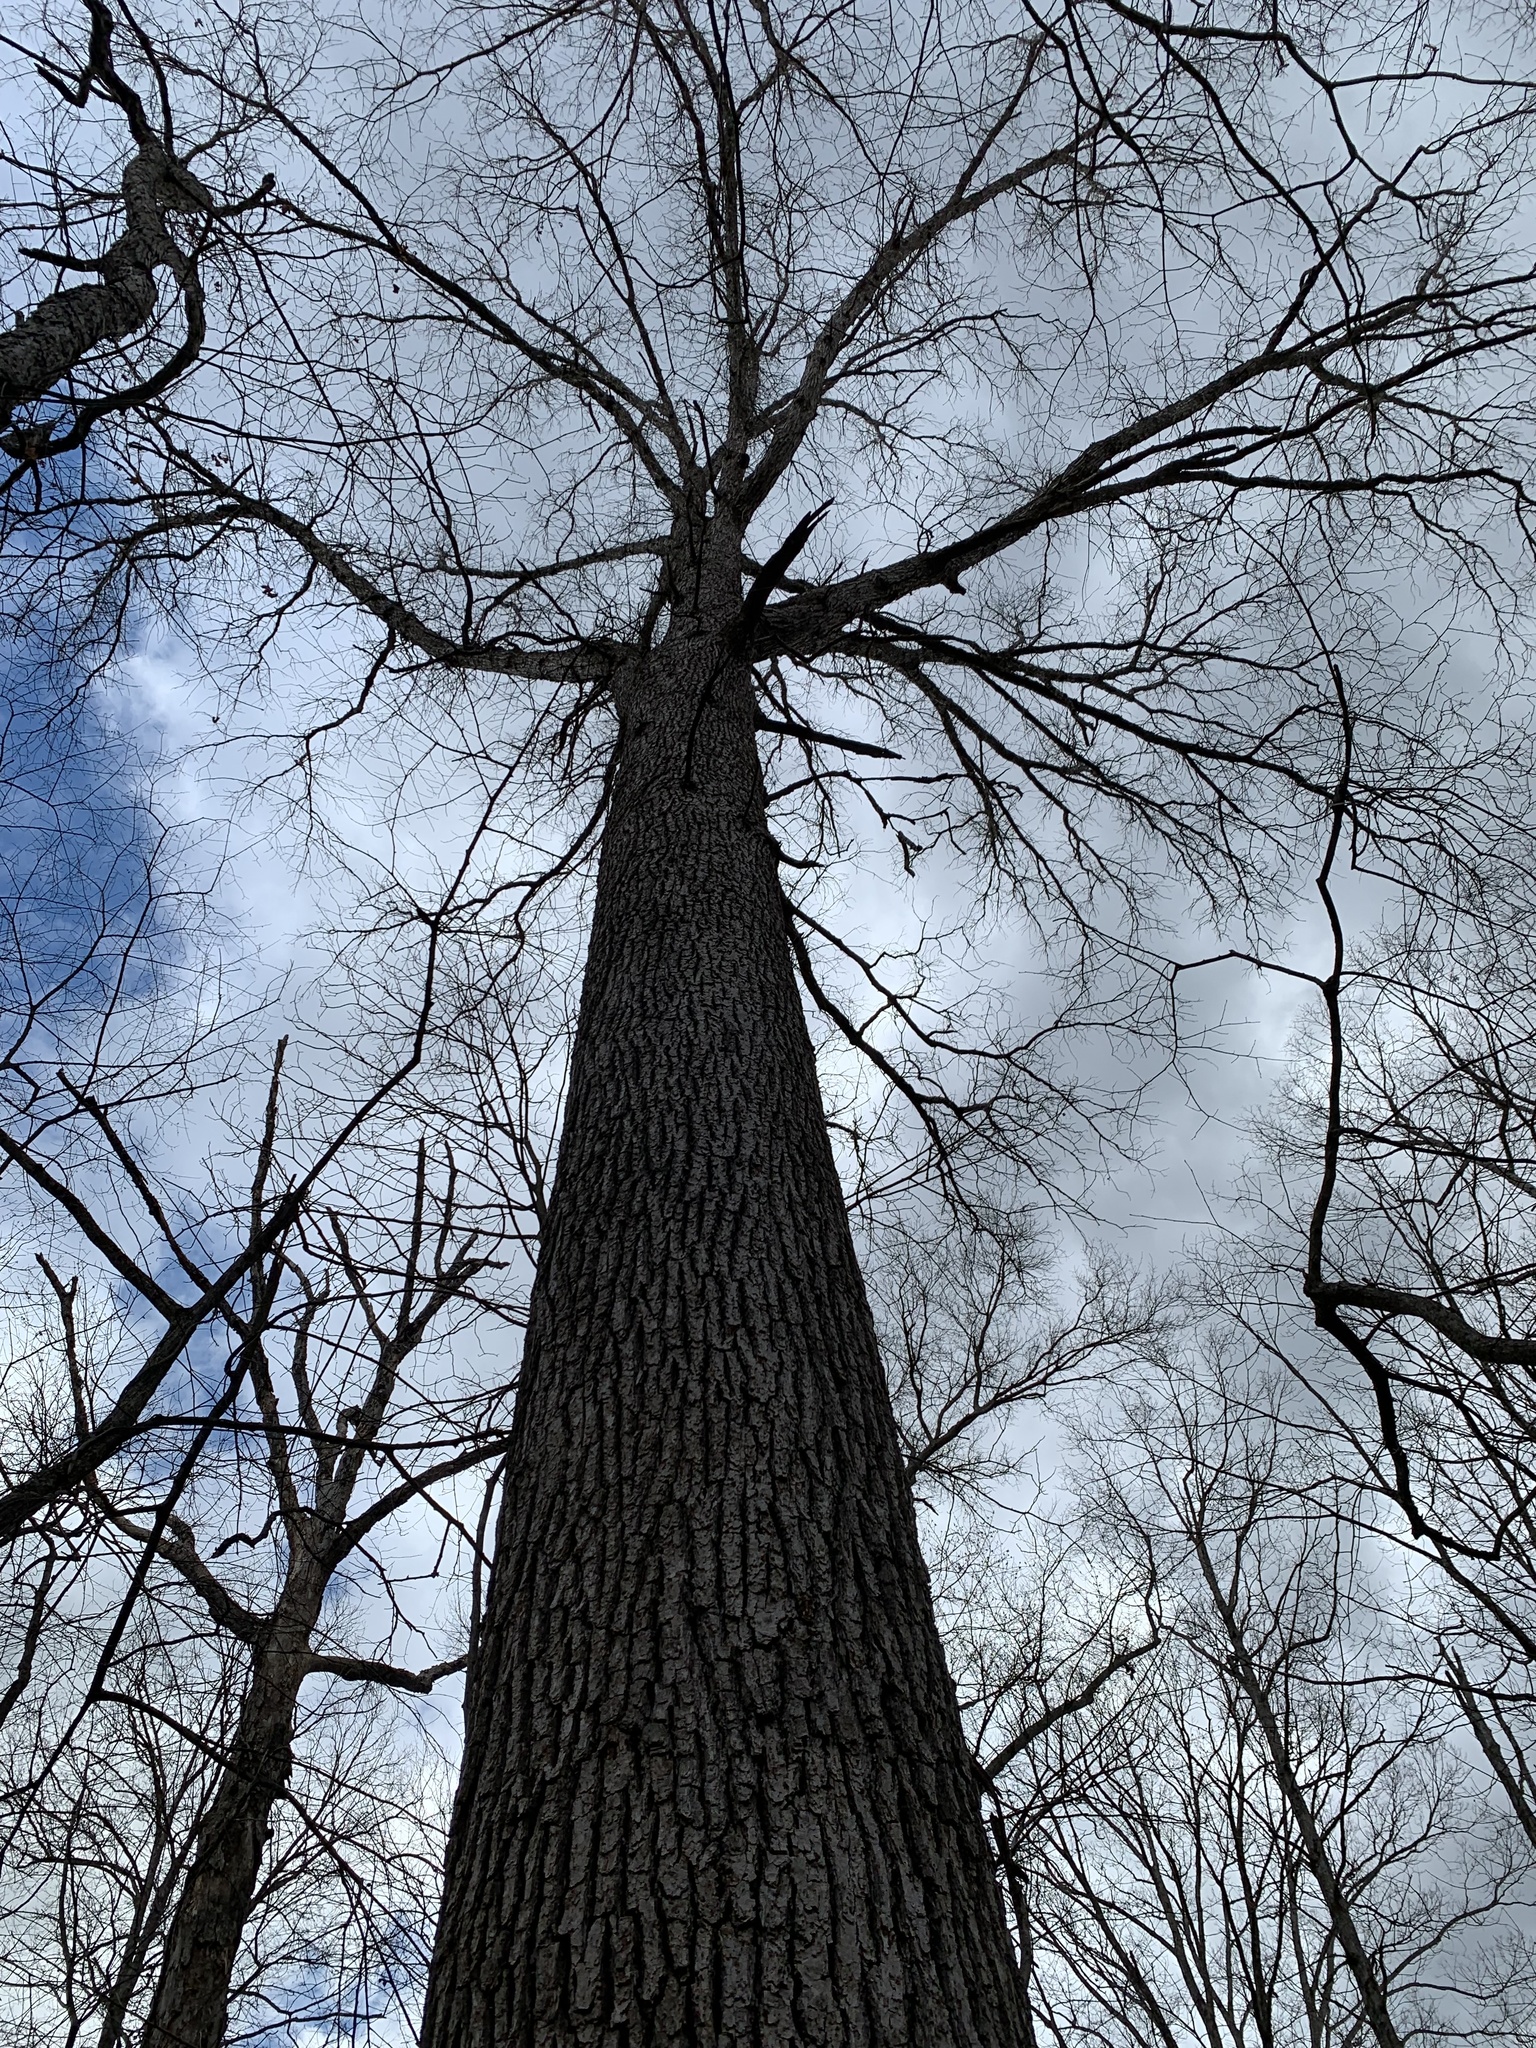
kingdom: Plantae
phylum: Tracheophyta
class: Magnoliopsida
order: Fagales
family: Fagaceae
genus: Quercus
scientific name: Quercus bicolor
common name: Swamp white oak
